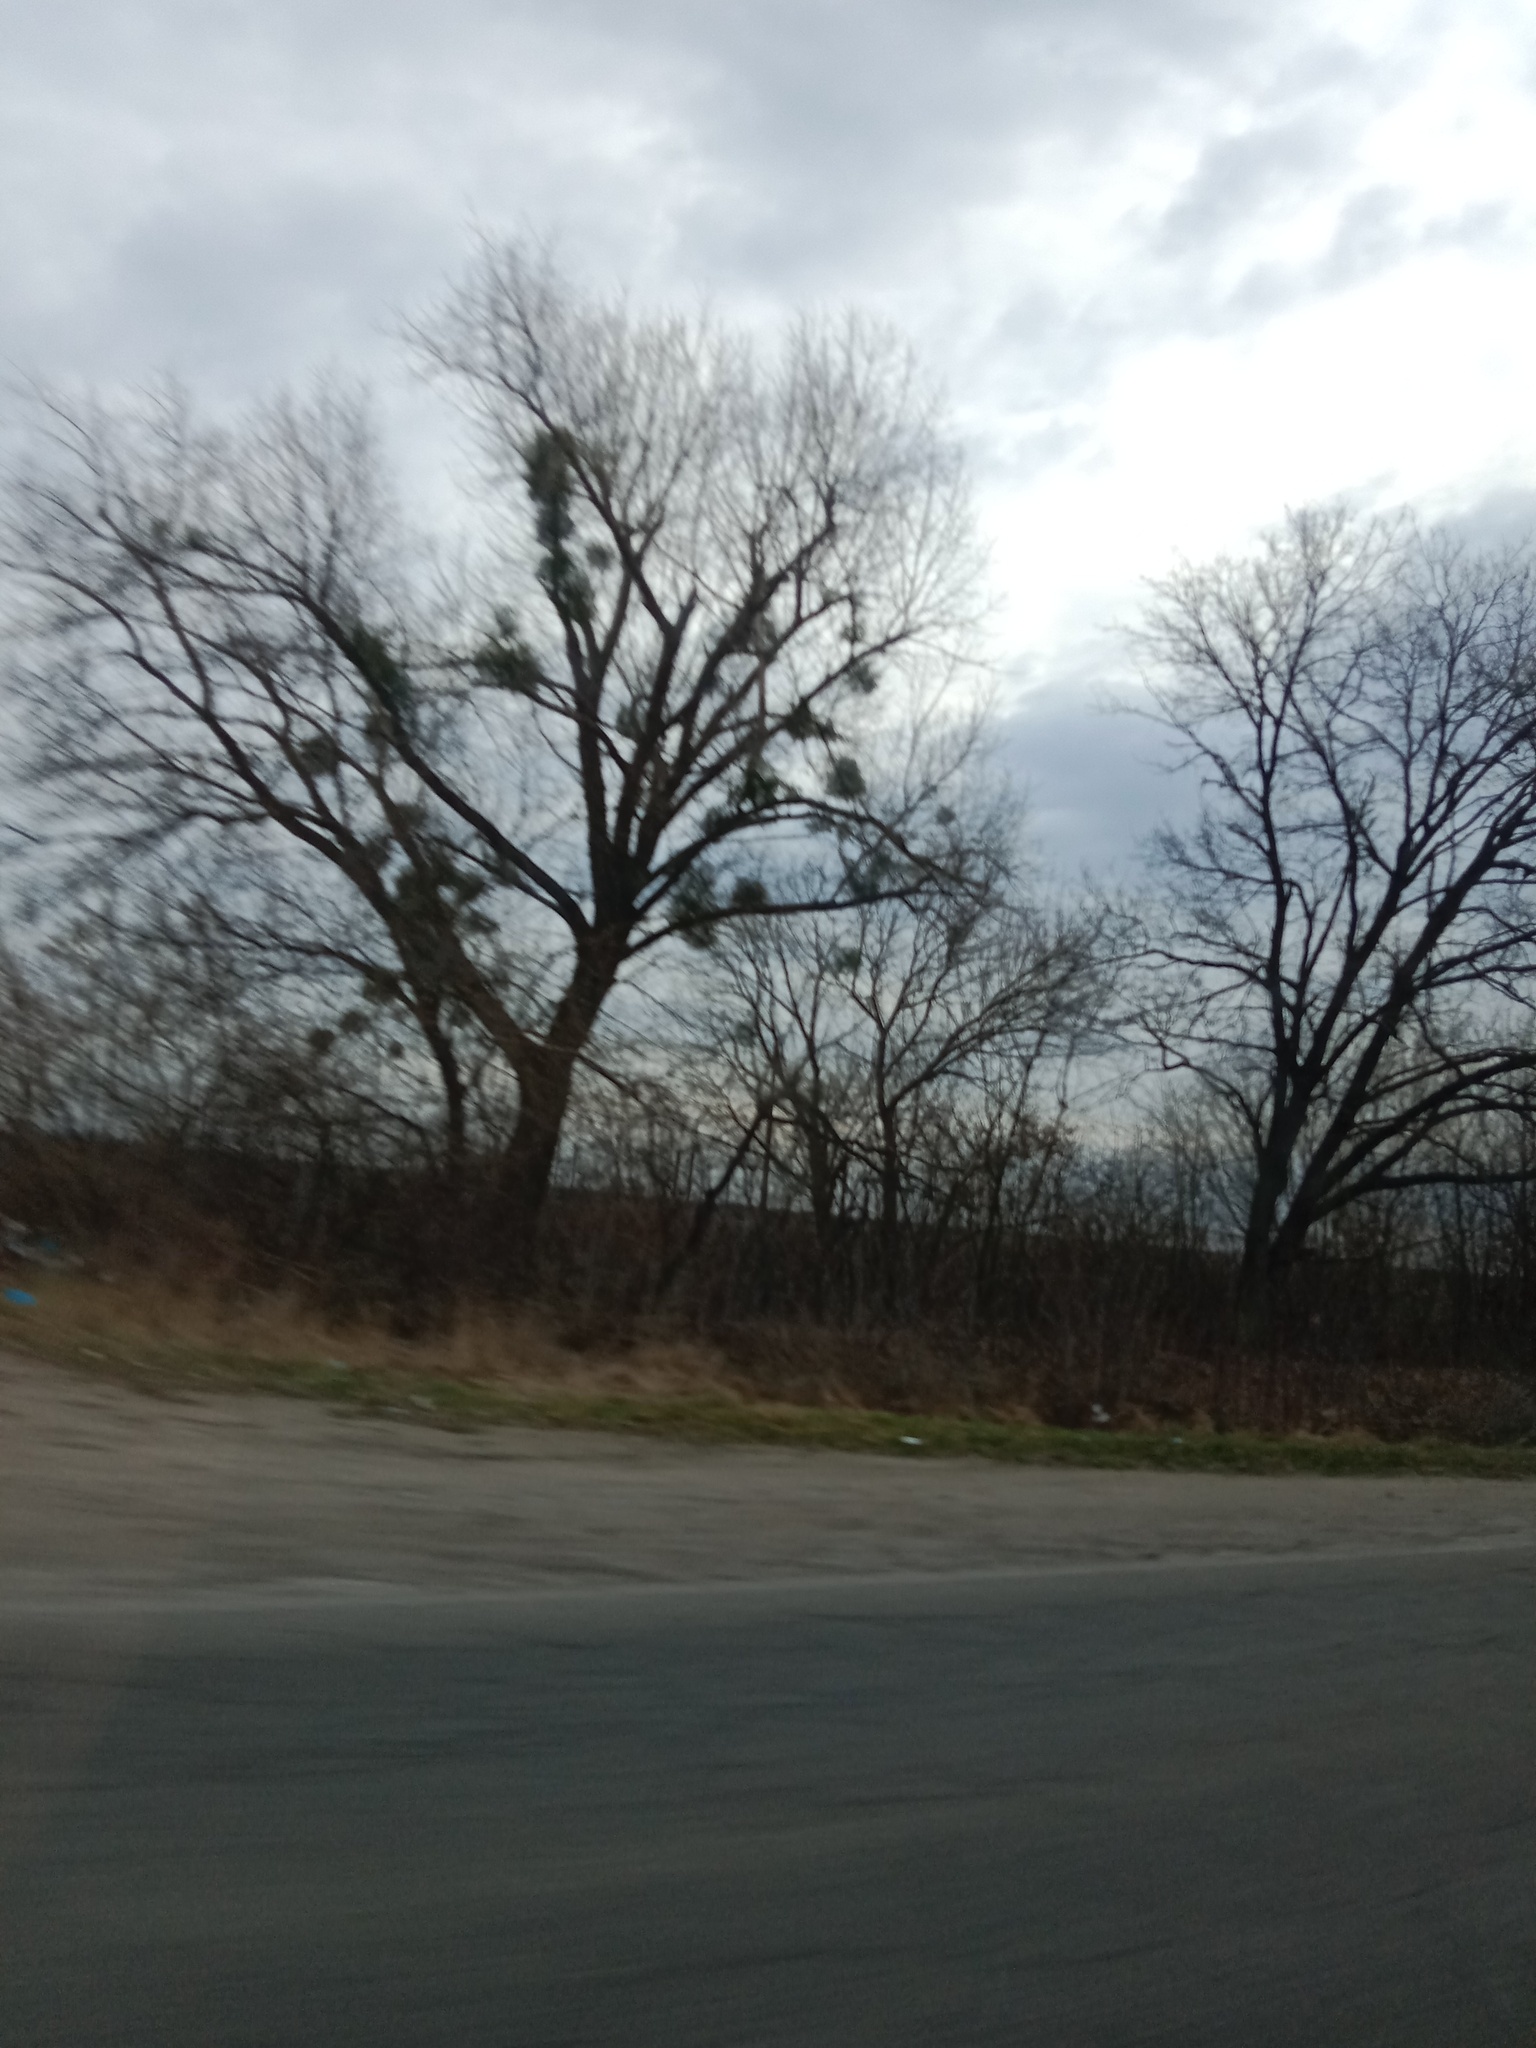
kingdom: Plantae
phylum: Tracheophyta
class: Magnoliopsida
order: Santalales
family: Viscaceae
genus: Viscum
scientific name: Viscum album
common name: Mistletoe
